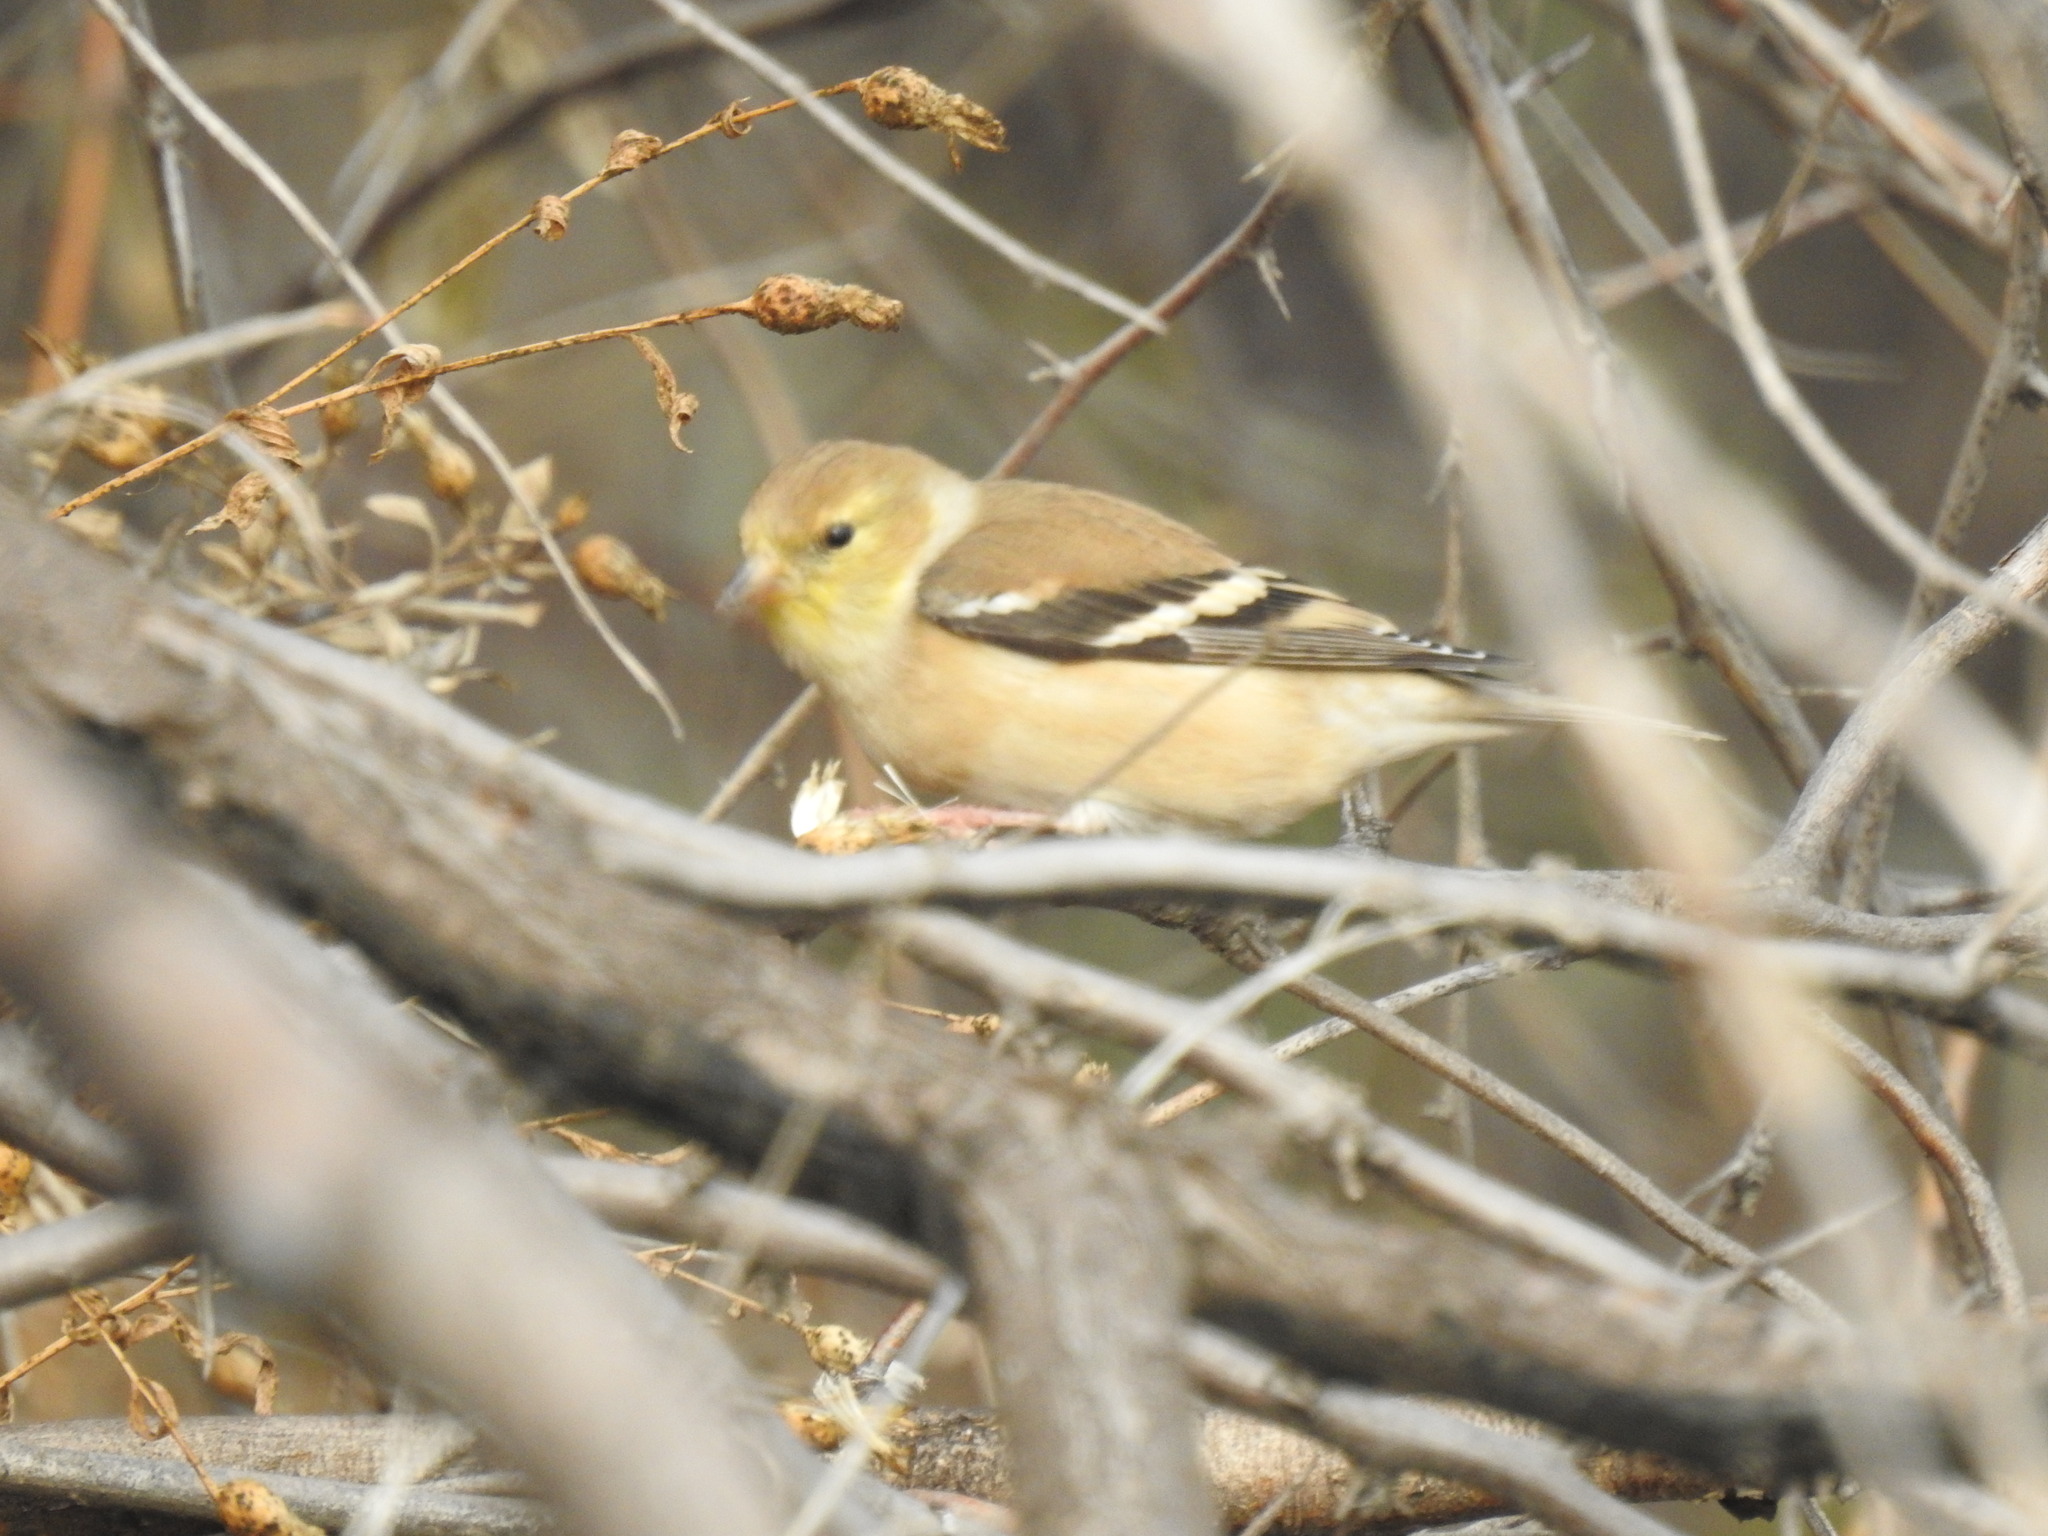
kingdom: Animalia
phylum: Chordata
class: Aves
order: Passeriformes
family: Fringillidae
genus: Spinus
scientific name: Spinus tristis
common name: American goldfinch
